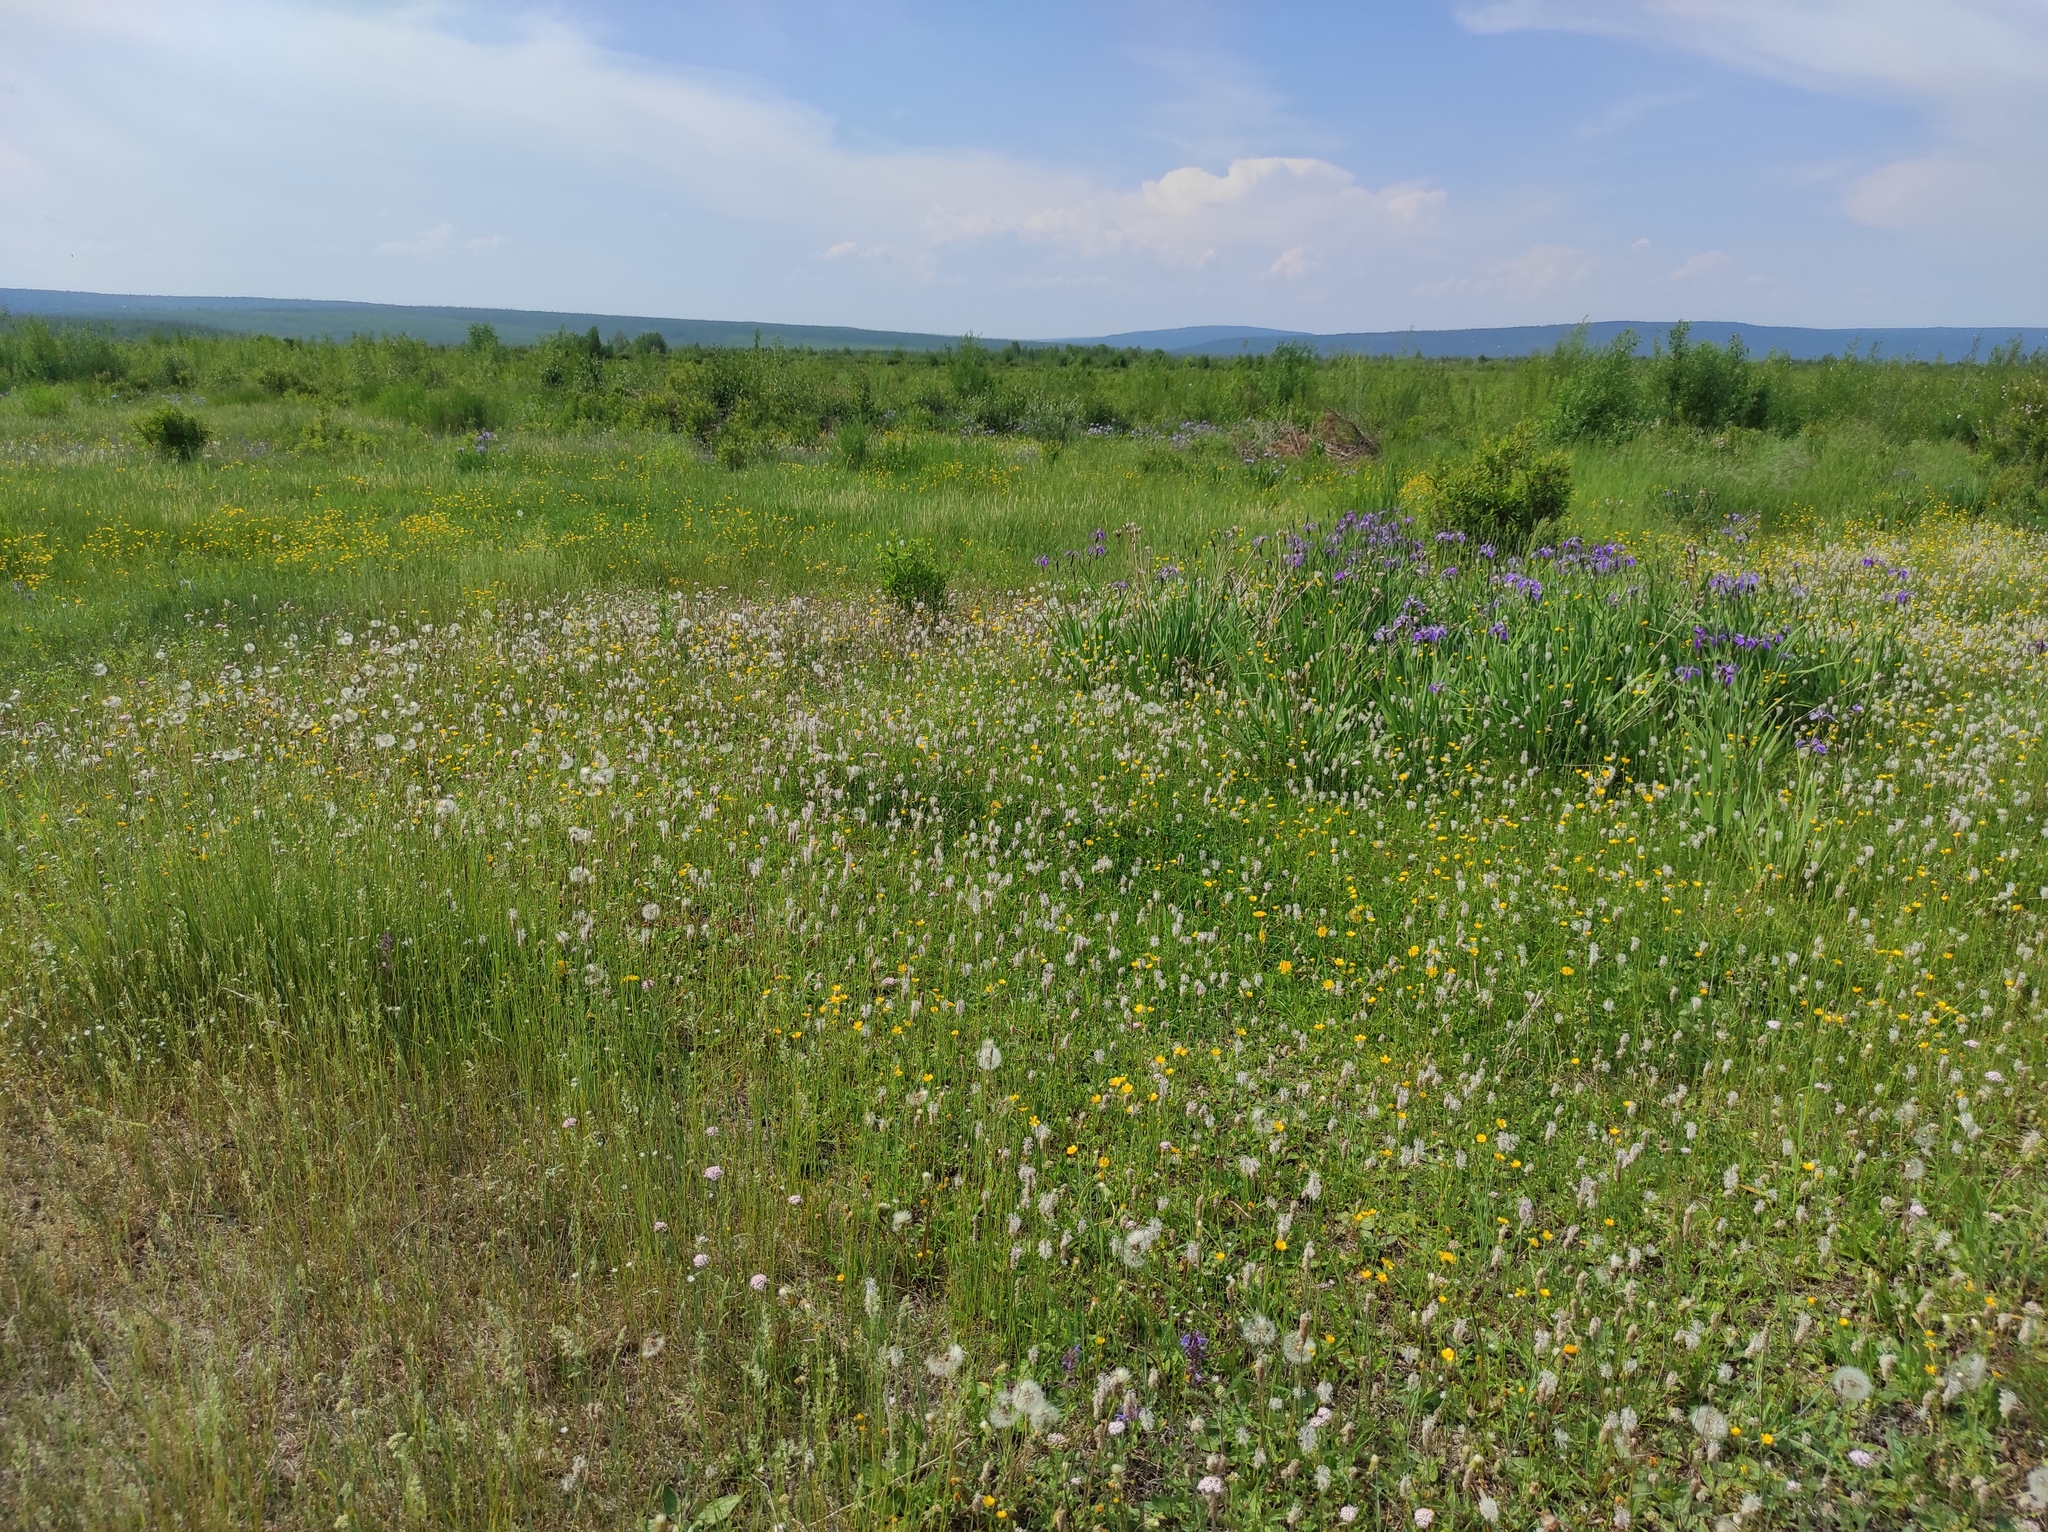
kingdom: Plantae
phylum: Tracheophyta
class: Liliopsida
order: Asparagales
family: Iridaceae
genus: Iris
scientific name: Iris setosa
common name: Arctic blue flag
